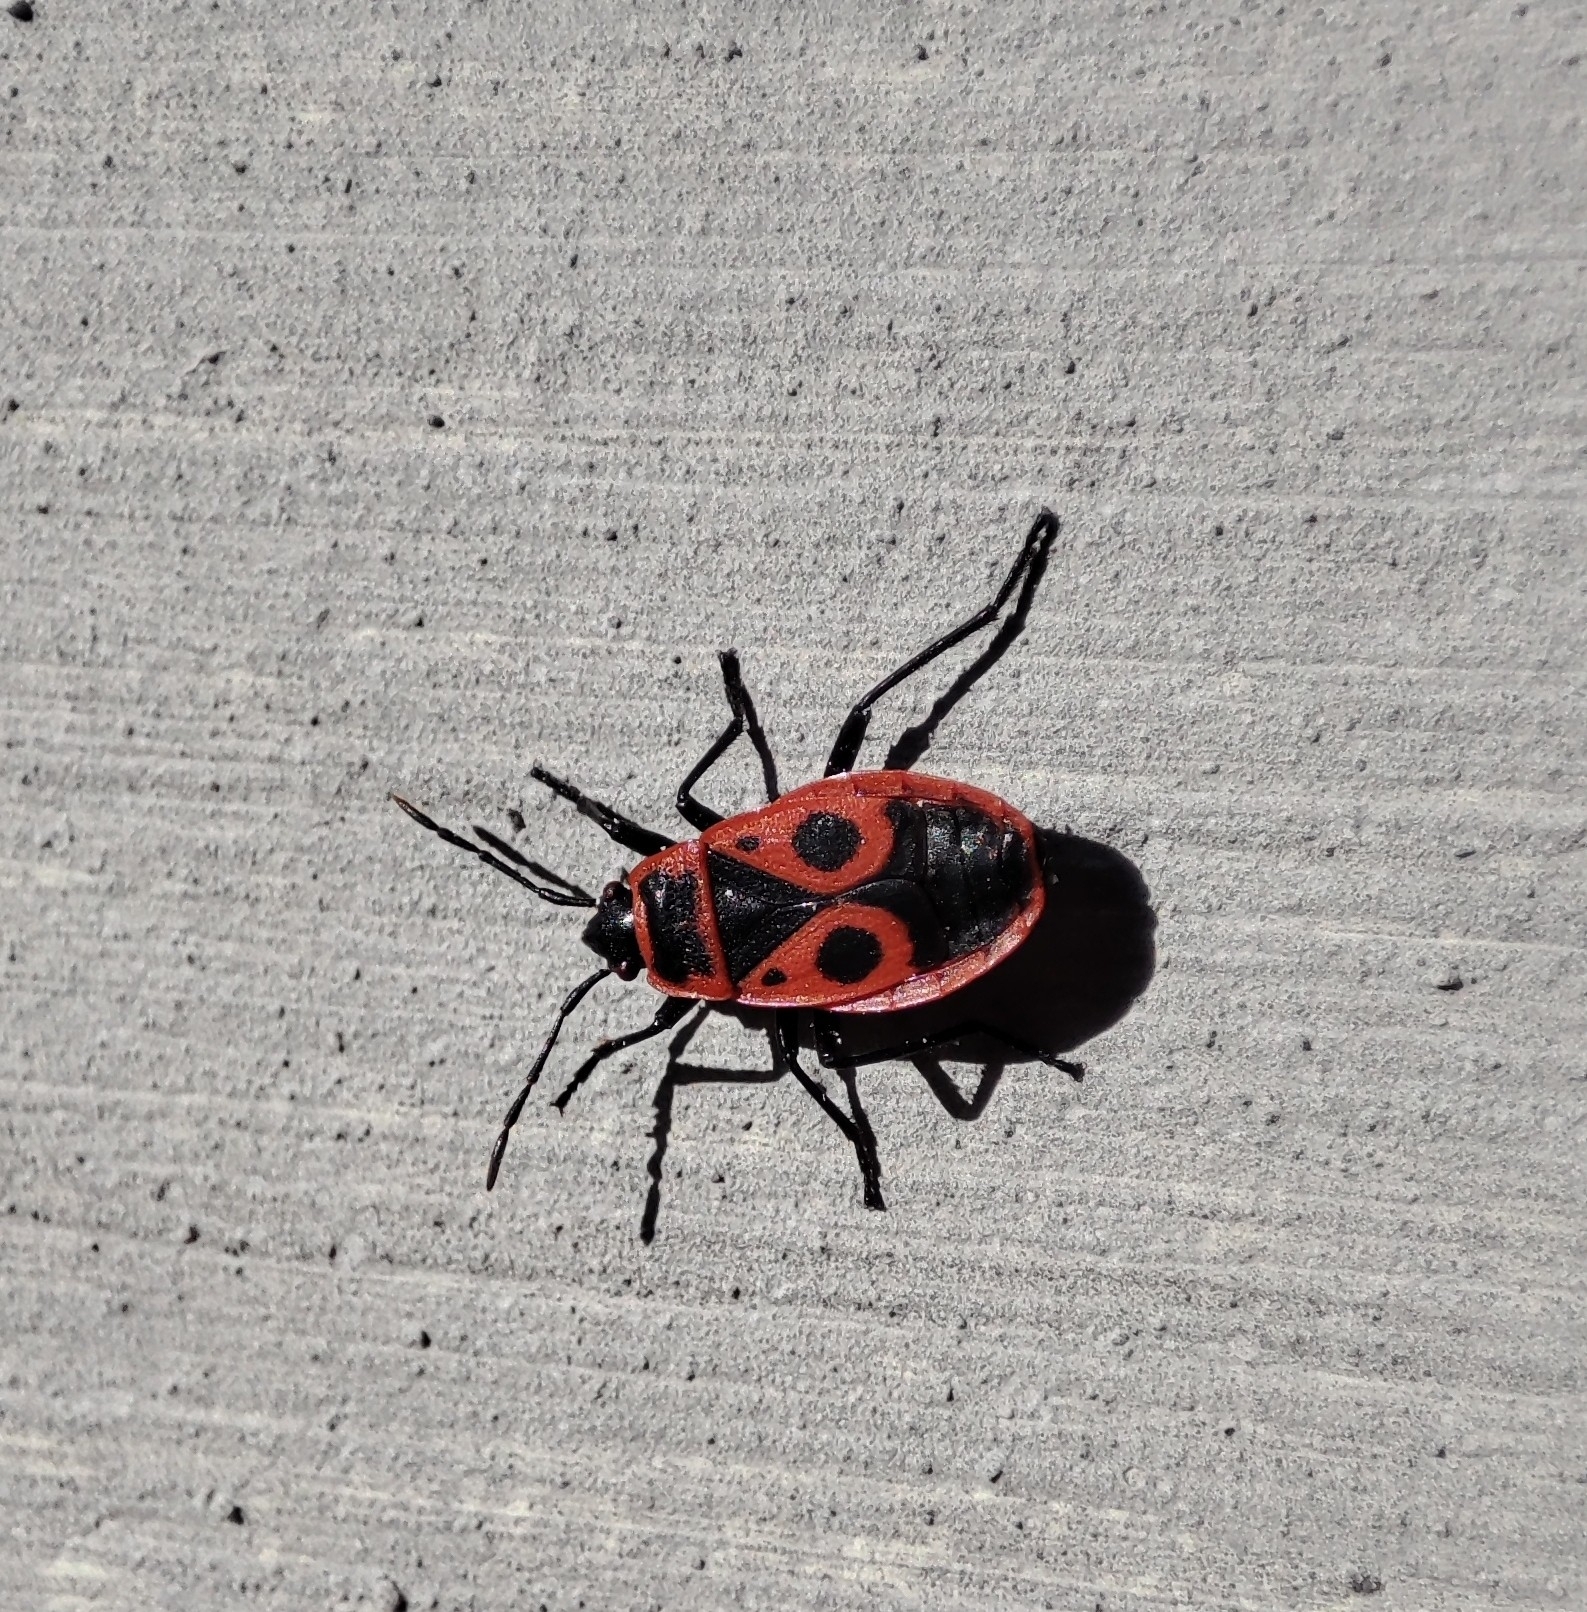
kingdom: Animalia
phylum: Arthropoda
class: Insecta
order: Hemiptera
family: Pyrrhocoridae
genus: Pyrrhocoris
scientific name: Pyrrhocoris apterus
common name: Firebug
